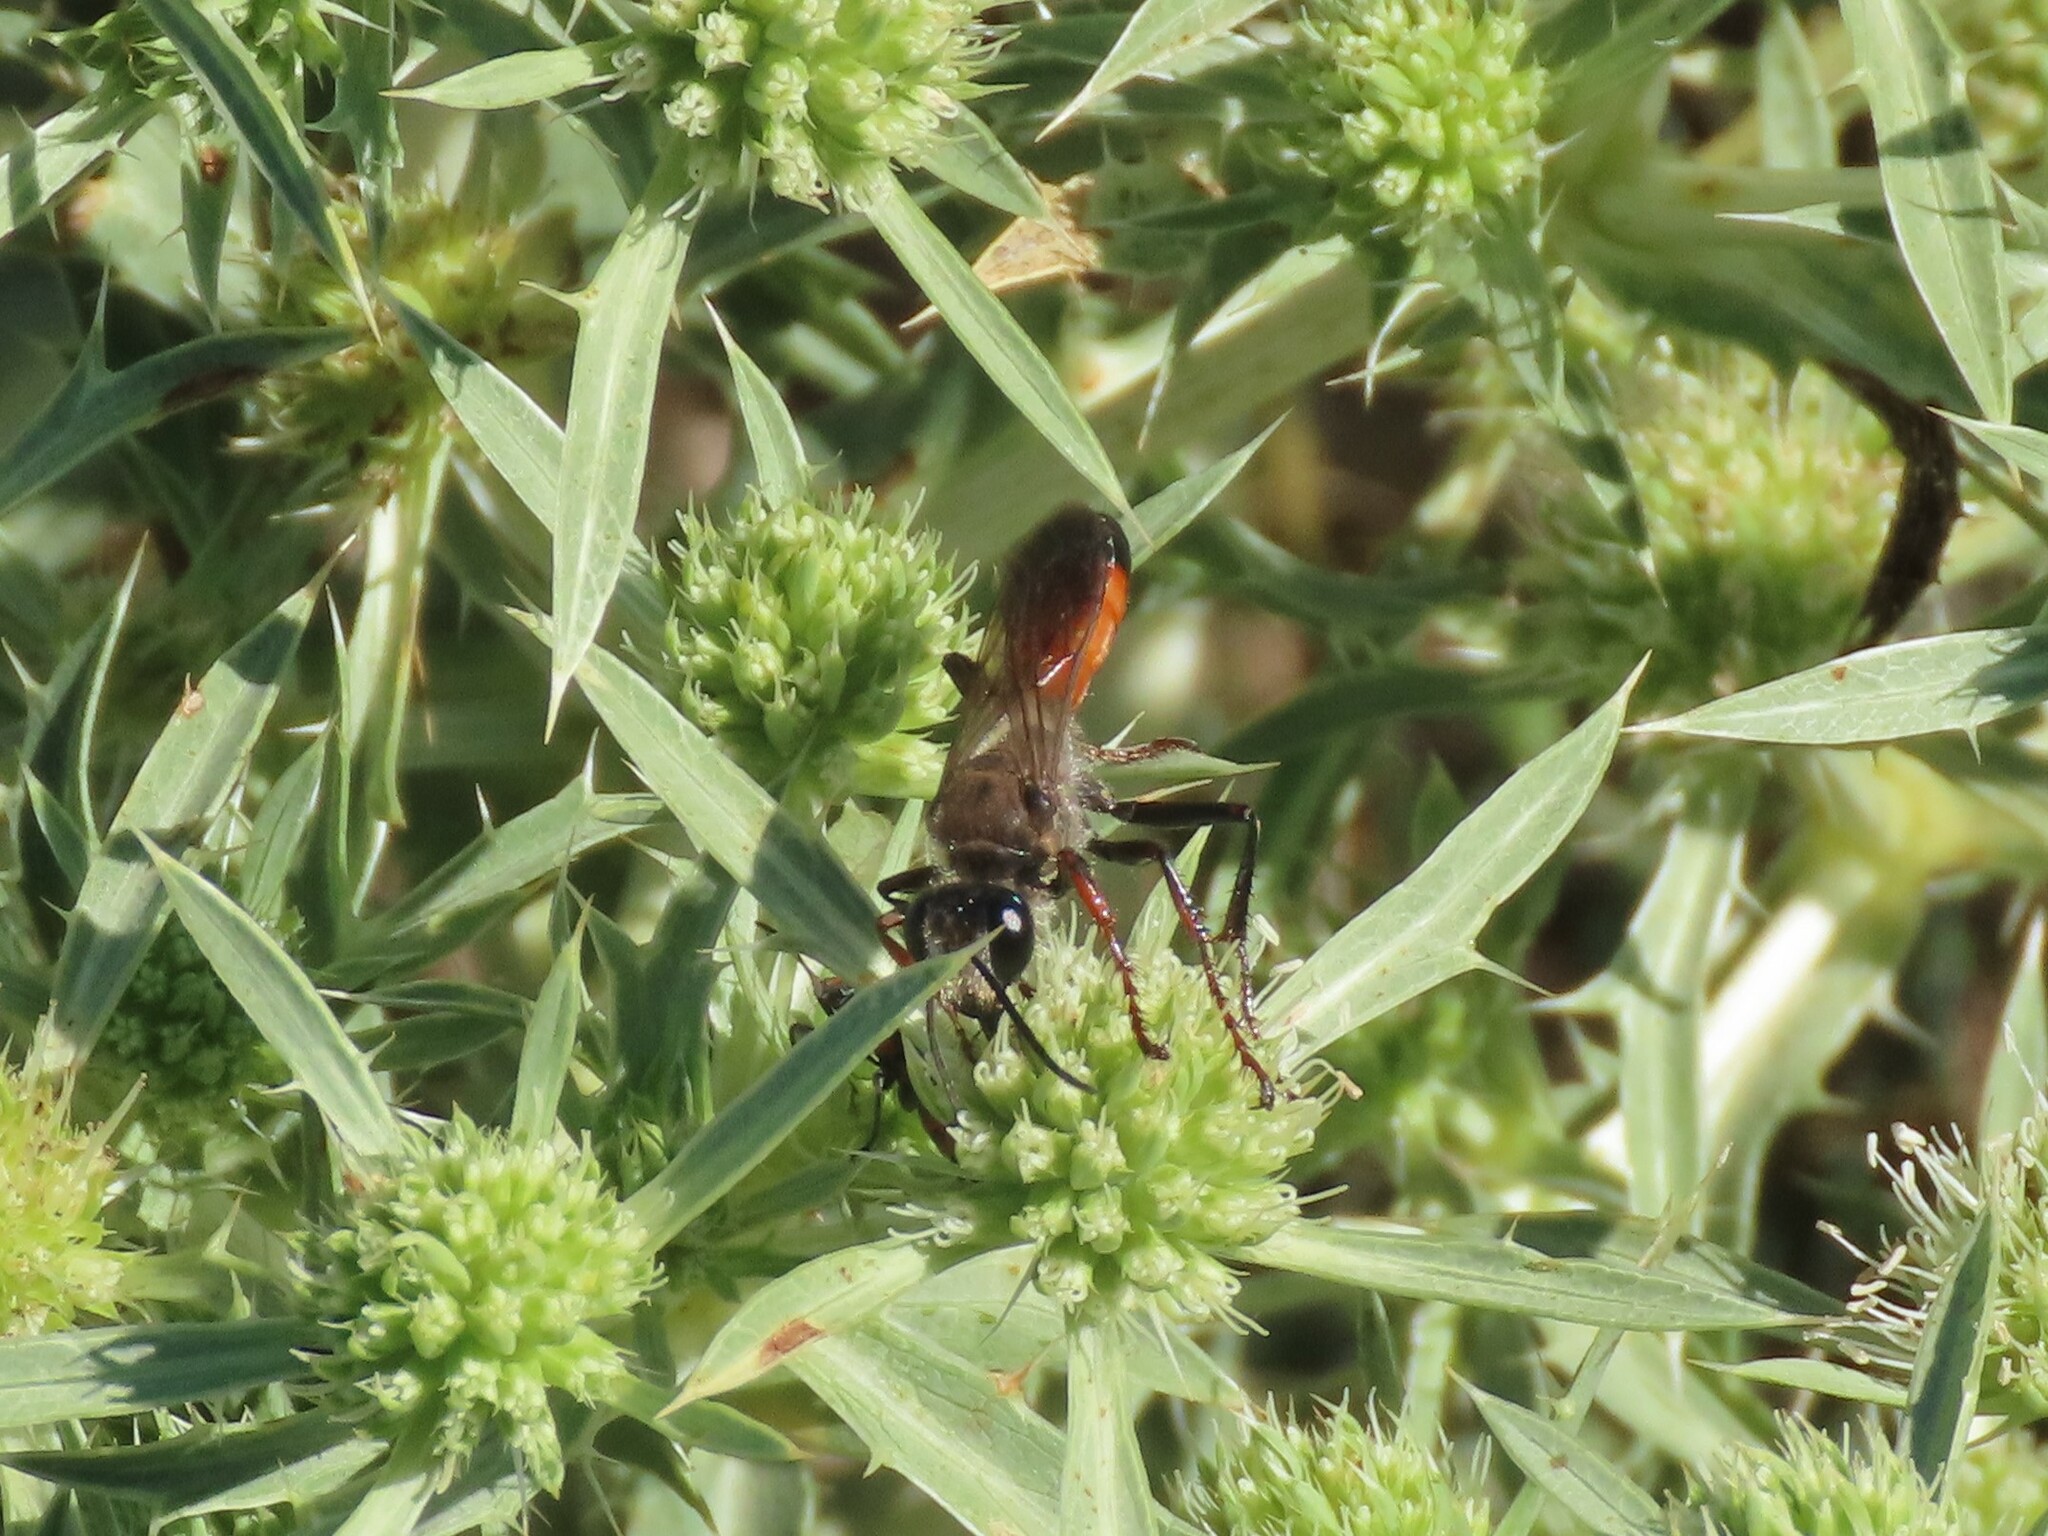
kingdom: Animalia
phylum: Arthropoda
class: Insecta
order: Hymenoptera
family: Sphecidae
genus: Sphex
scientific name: Sphex funerarius
